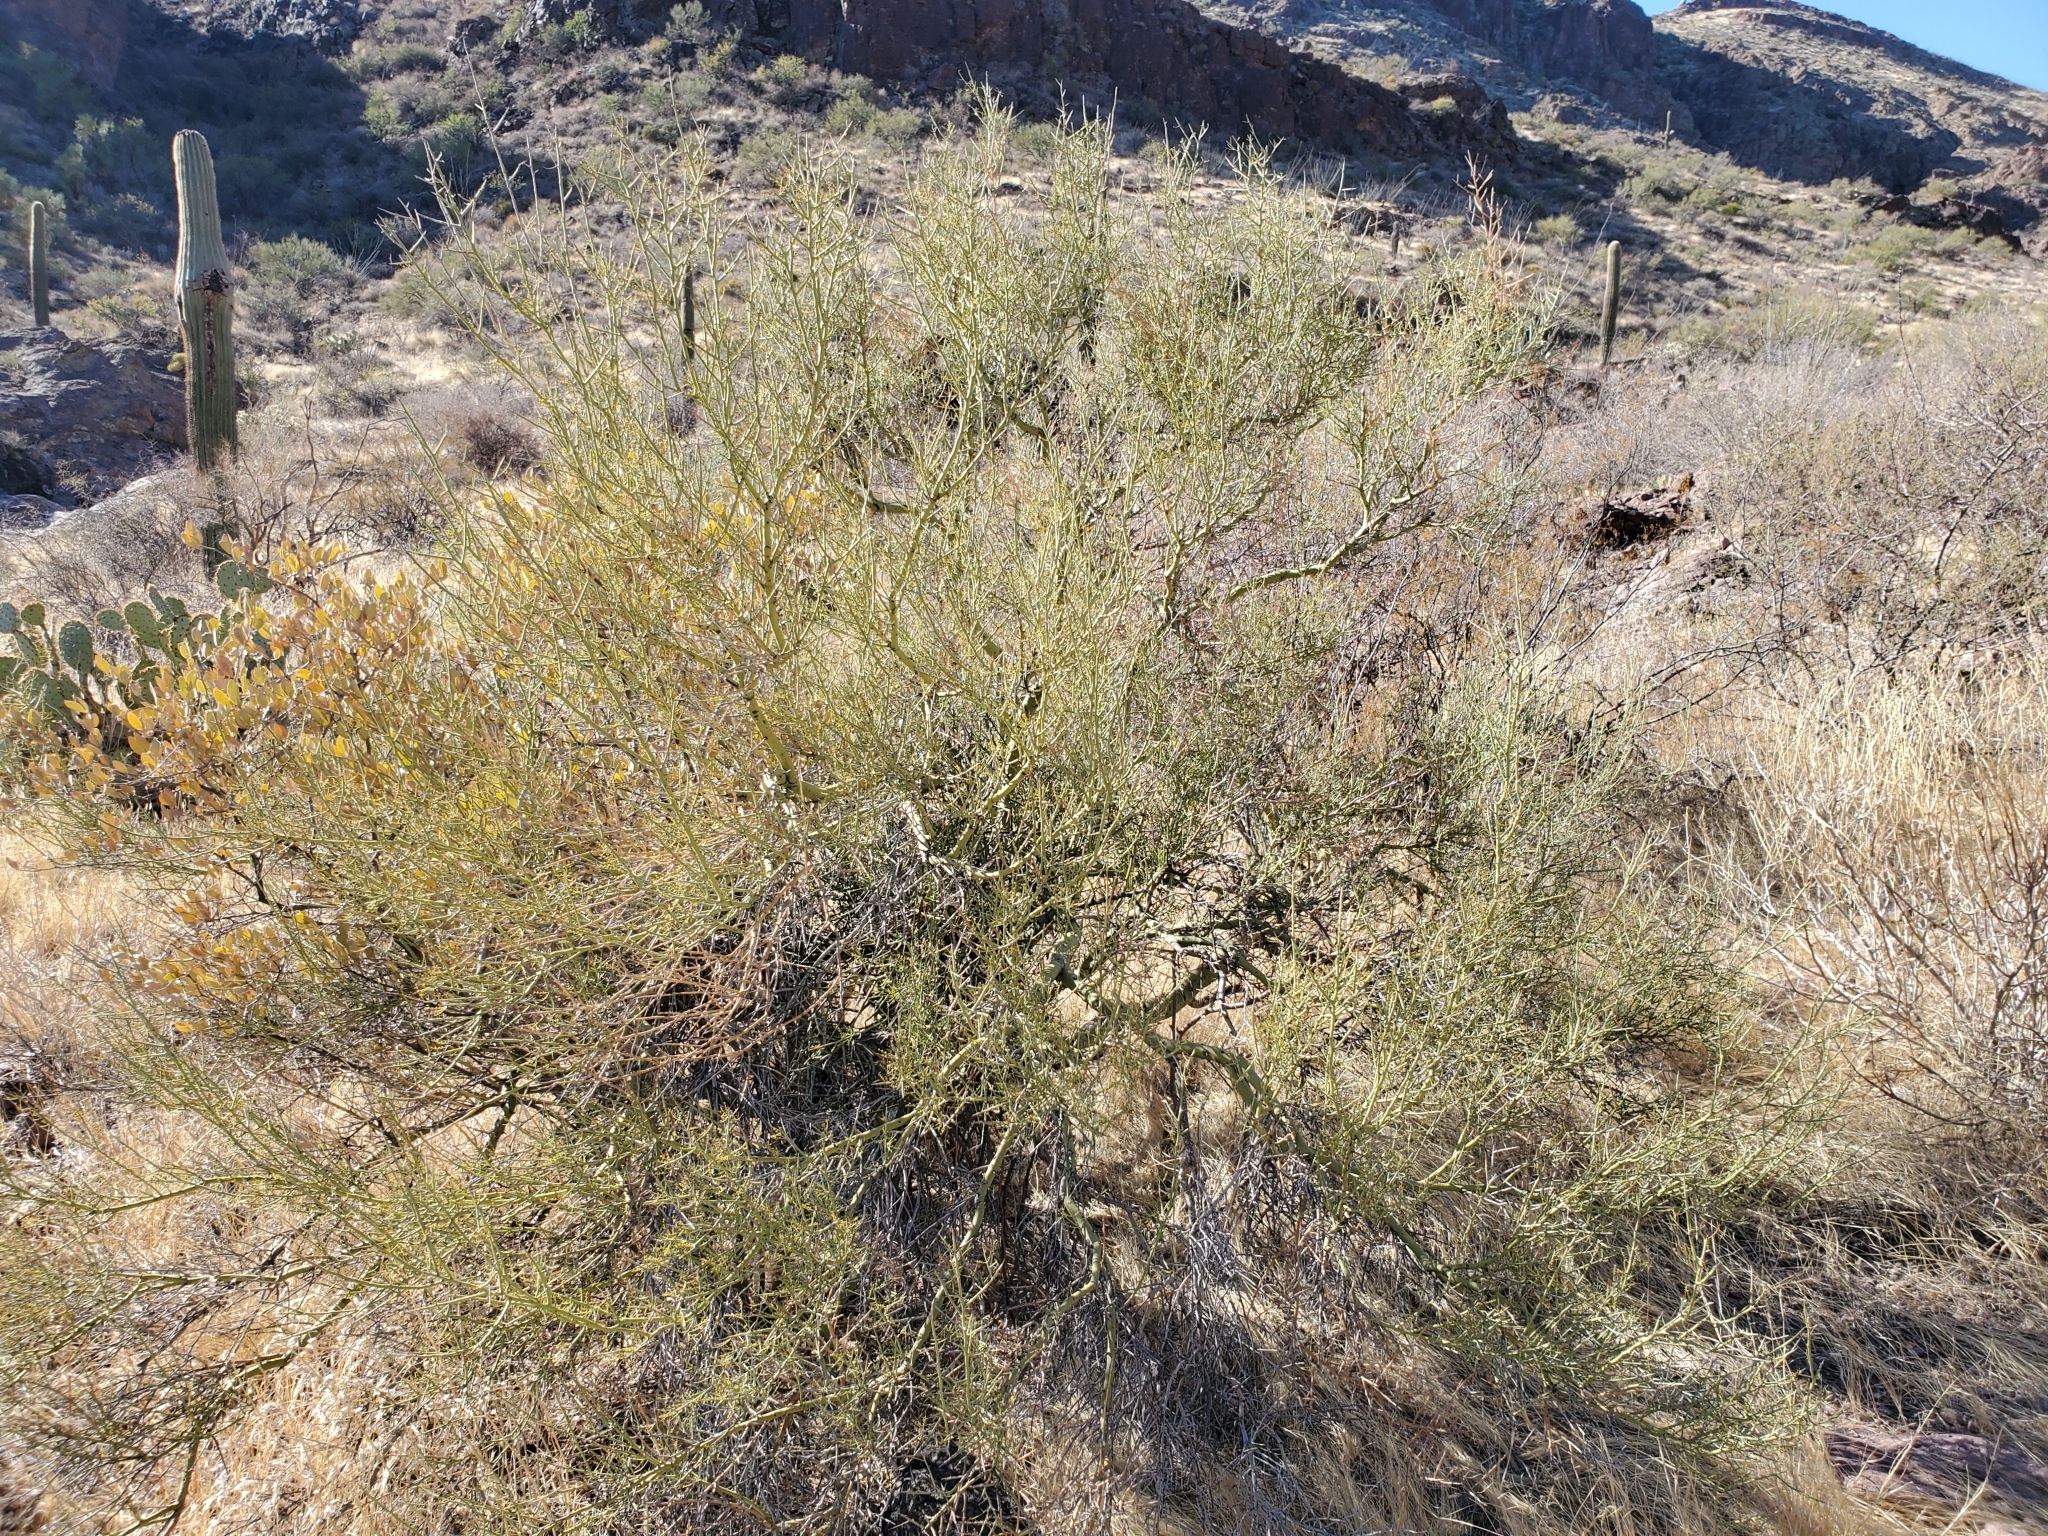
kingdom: Plantae
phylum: Tracheophyta
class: Magnoliopsida
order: Fabales
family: Fabaceae
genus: Parkinsonia
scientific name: Parkinsonia microphylla
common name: Yellow paloverde
